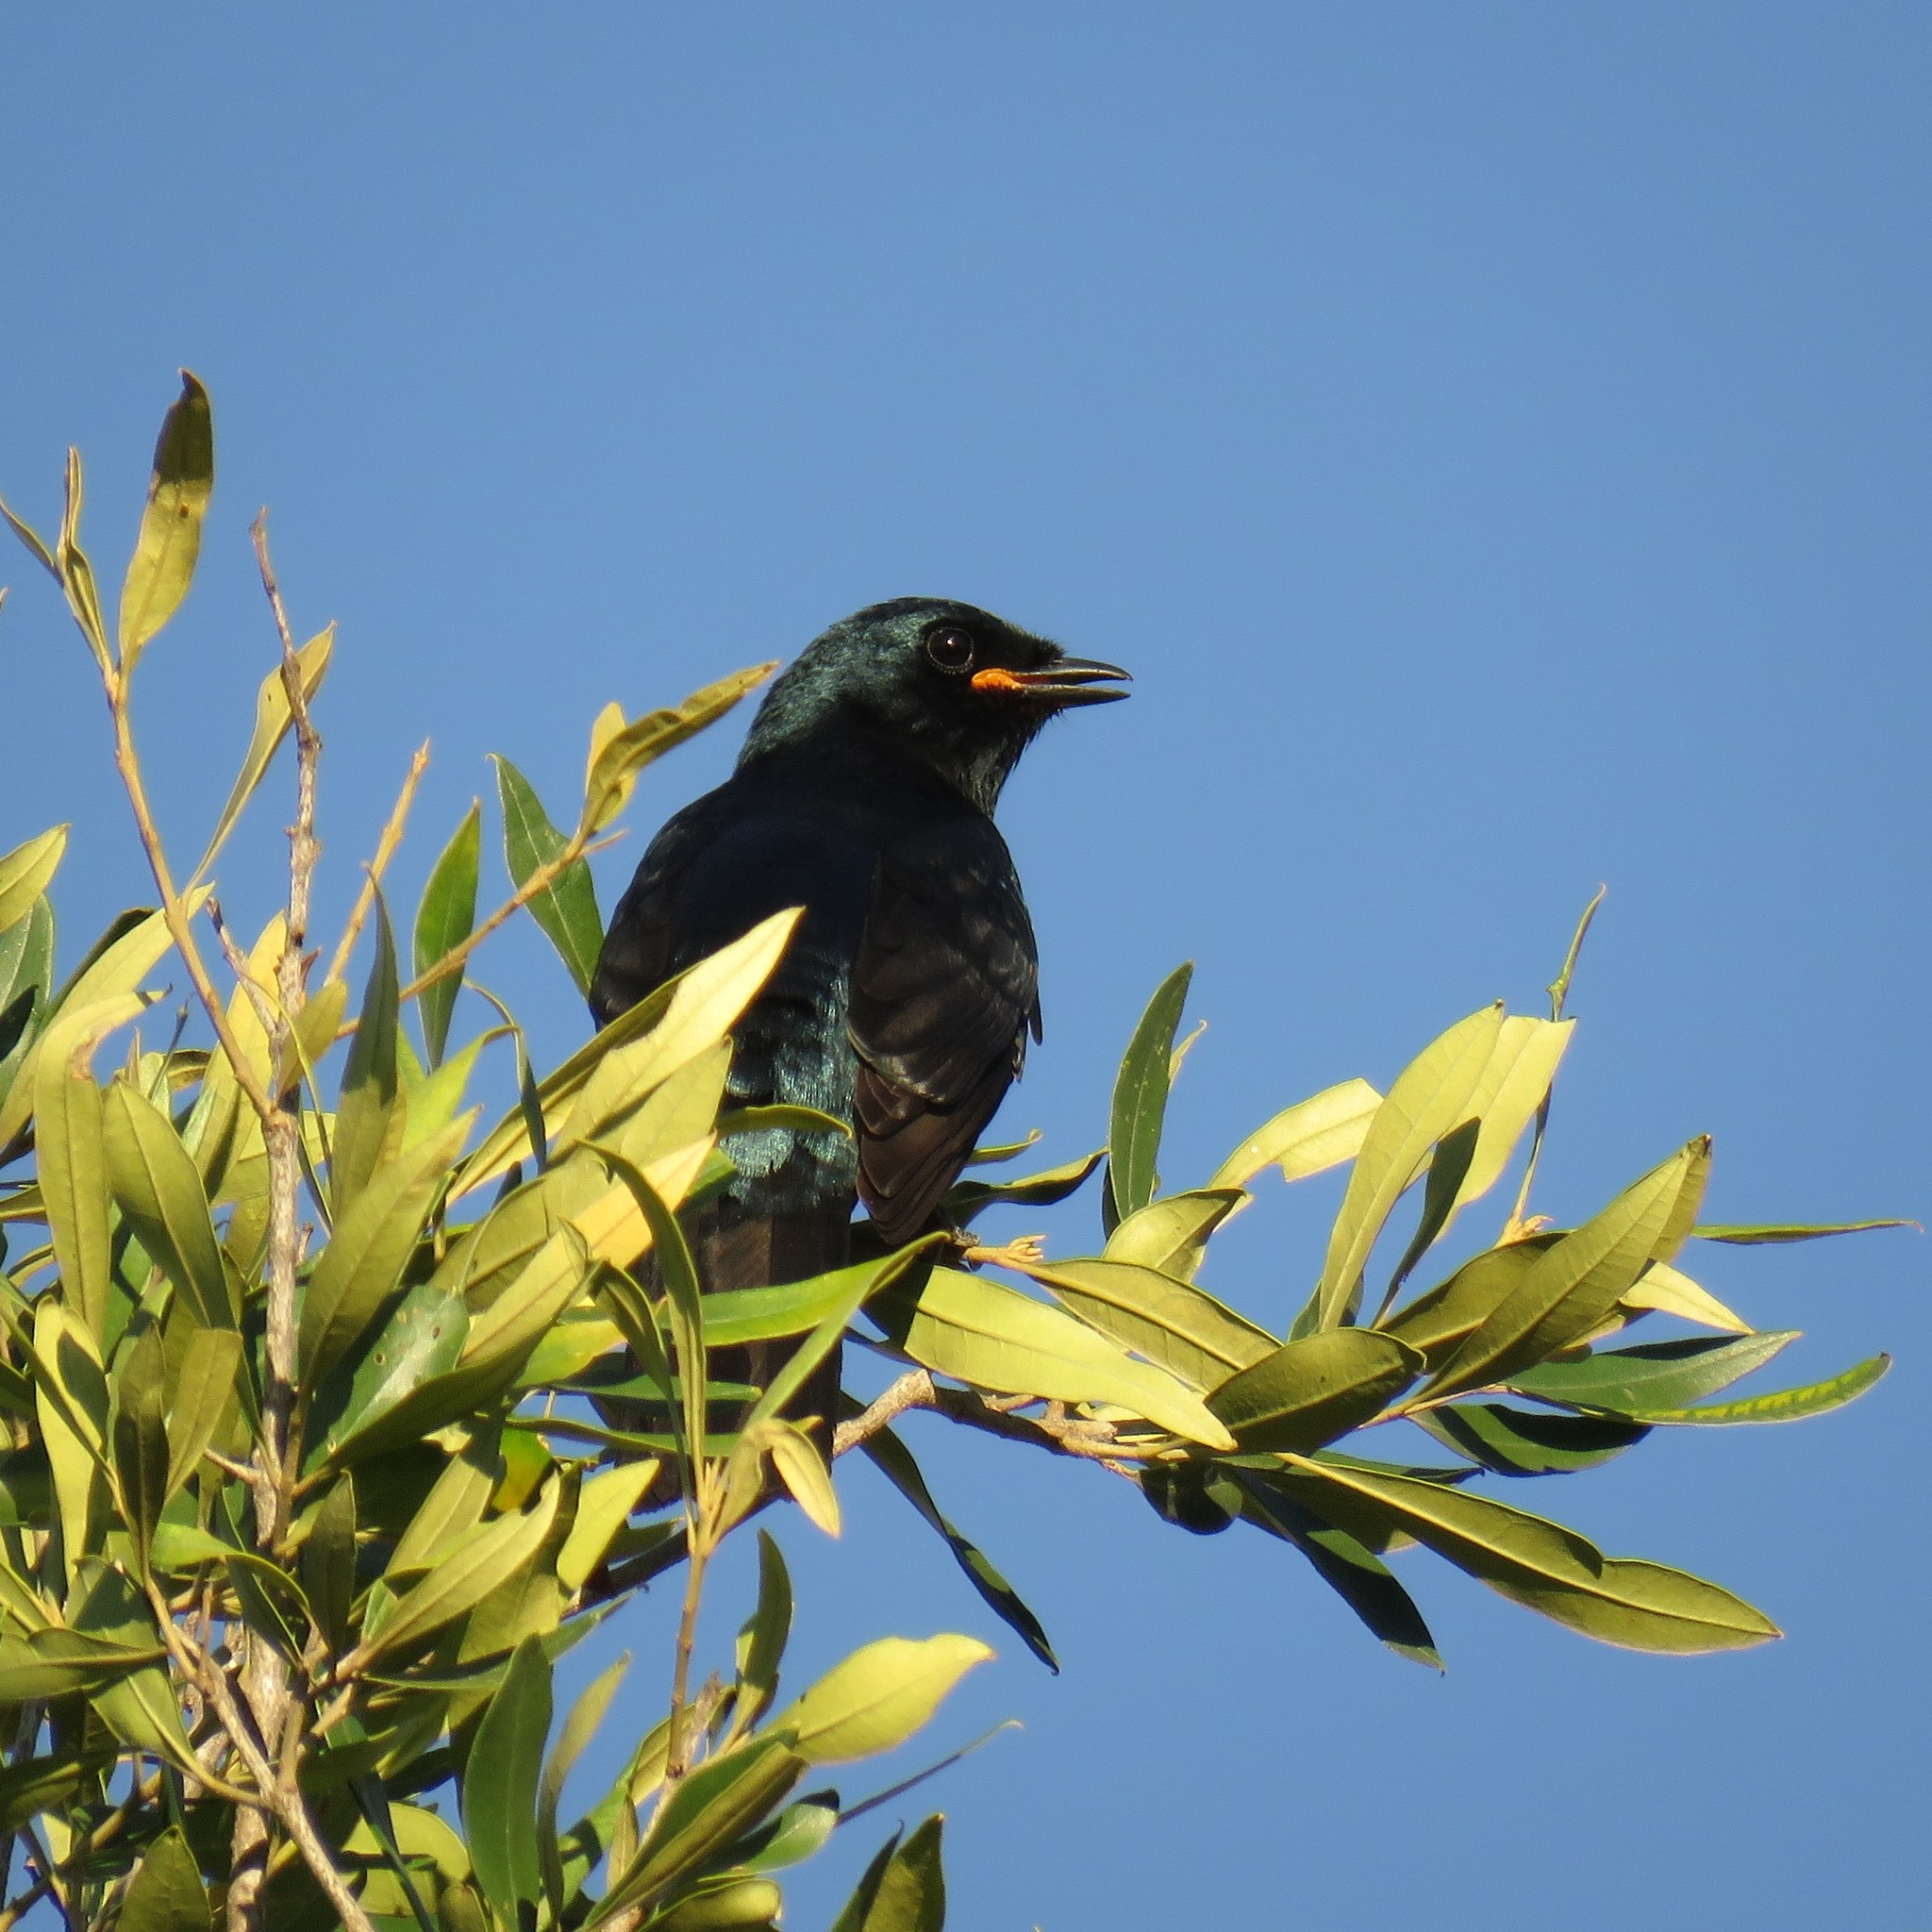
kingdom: Animalia
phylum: Chordata
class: Aves
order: Passeriformes
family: Campephagidae
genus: Campephaga
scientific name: Campephaga flava
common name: Black cuckooshrike
